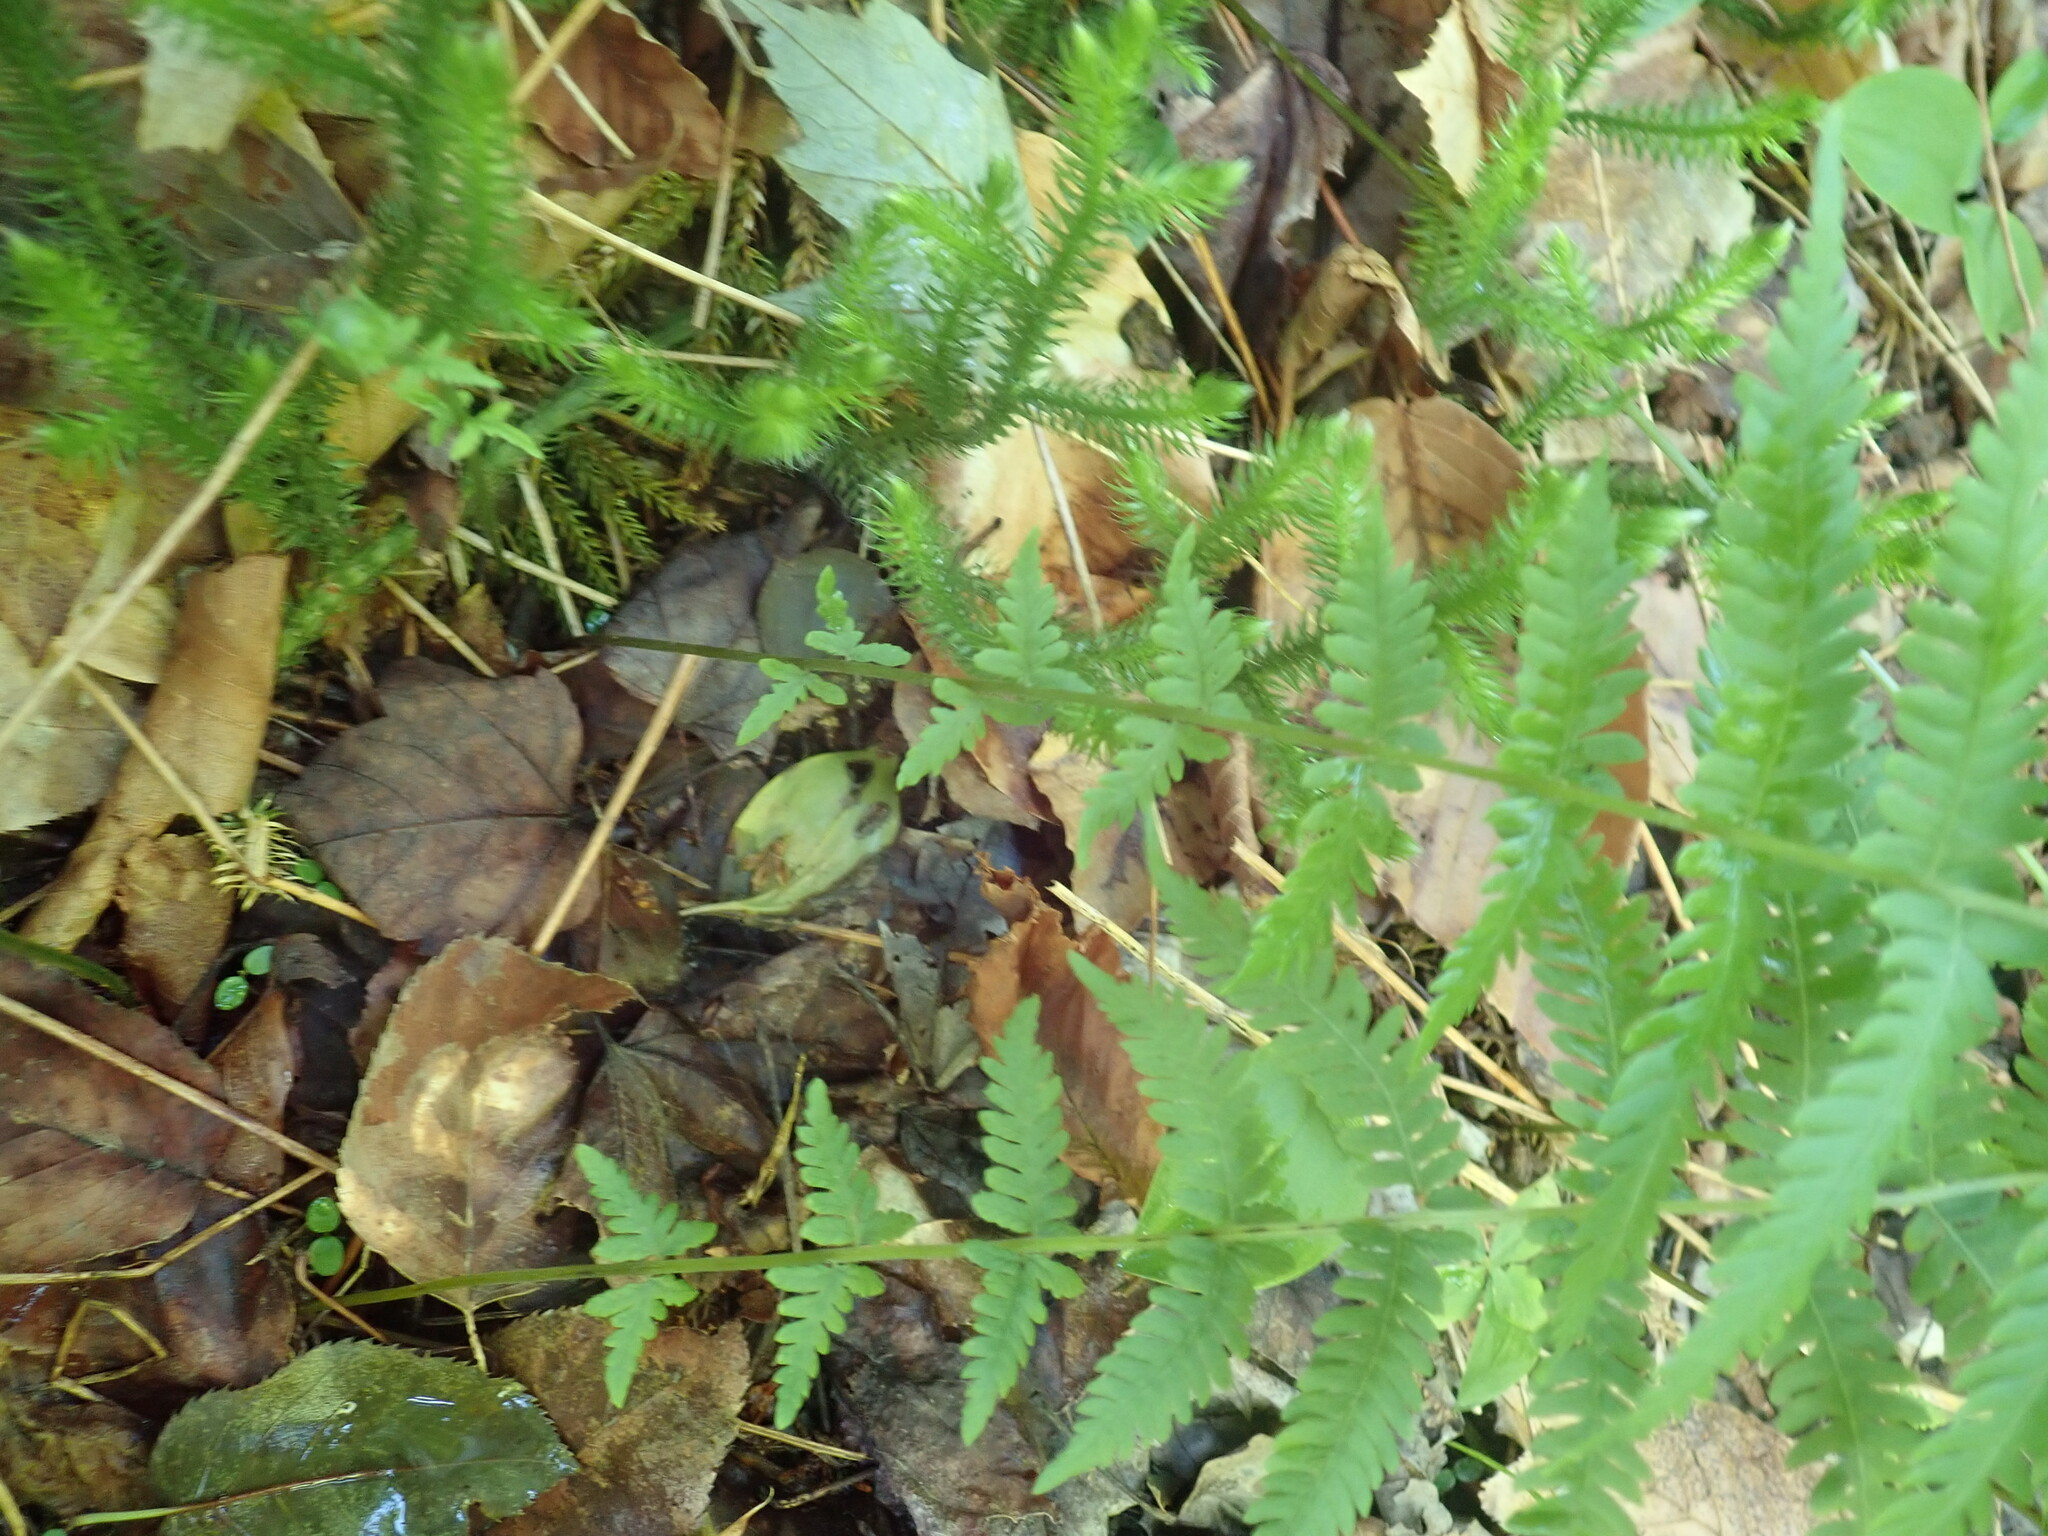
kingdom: Plantae
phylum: Tracheophyta
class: Polypodiopsida
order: Polypodiales
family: Thelypteridaceae
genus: Amauropelta
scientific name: Amauropelta noveboracensis
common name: New york fern
